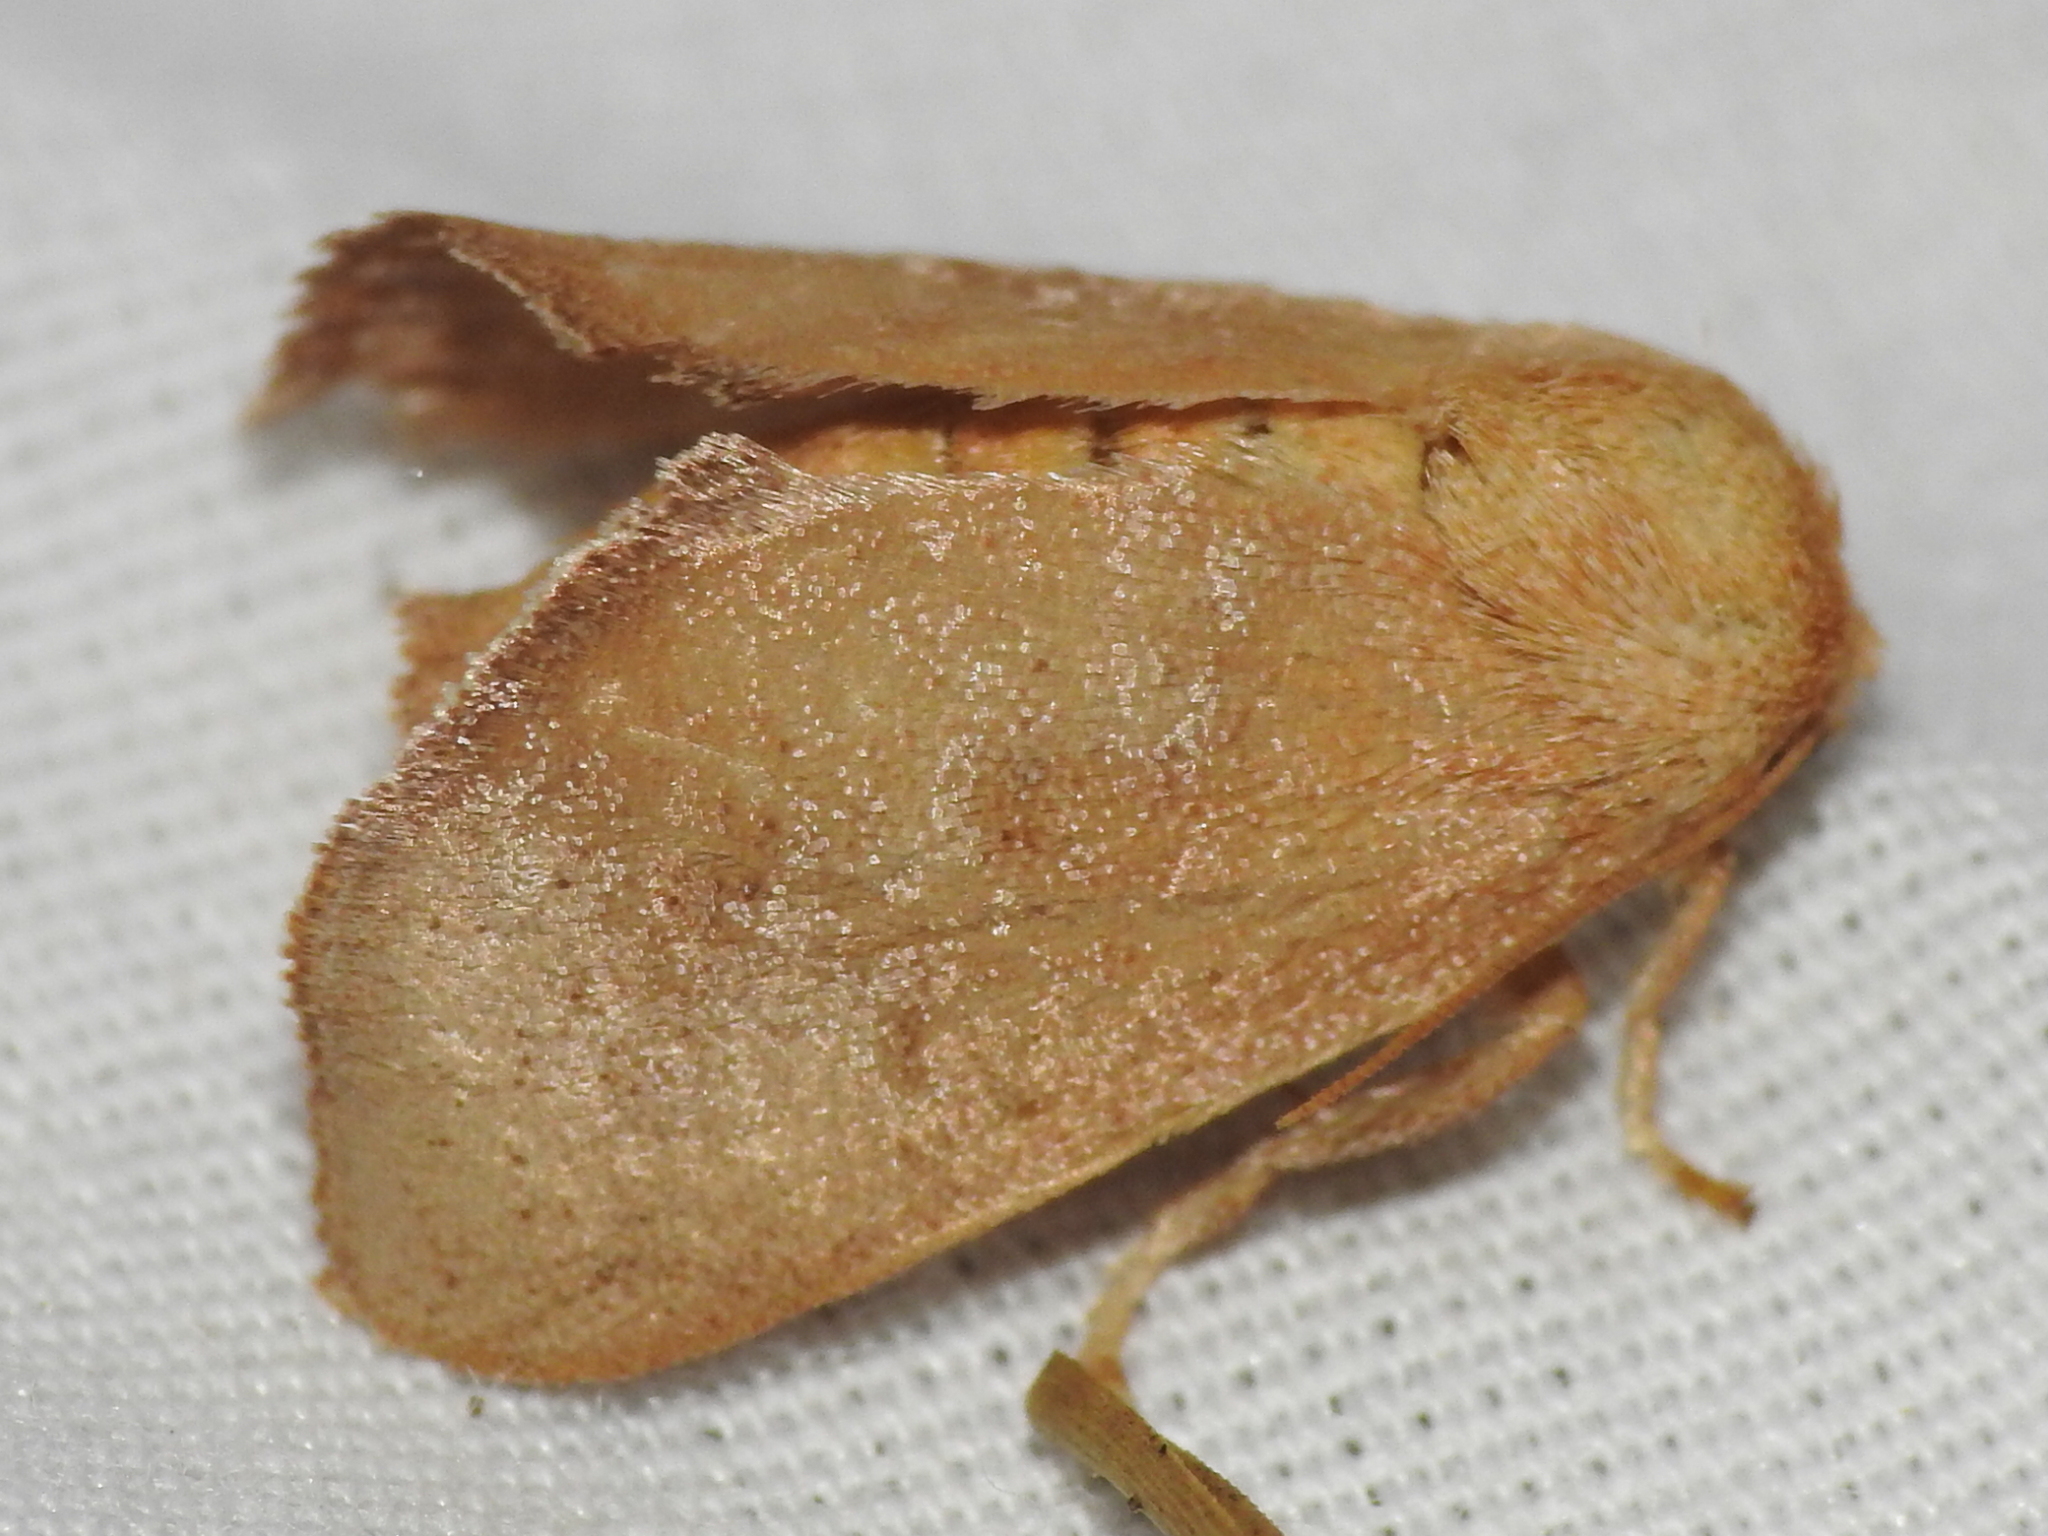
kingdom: Animalia
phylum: Arthropoda
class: Insecta
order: Lepidoptera
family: Limacodidae
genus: Isa
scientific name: Isa textula
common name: Crowned slug moth
